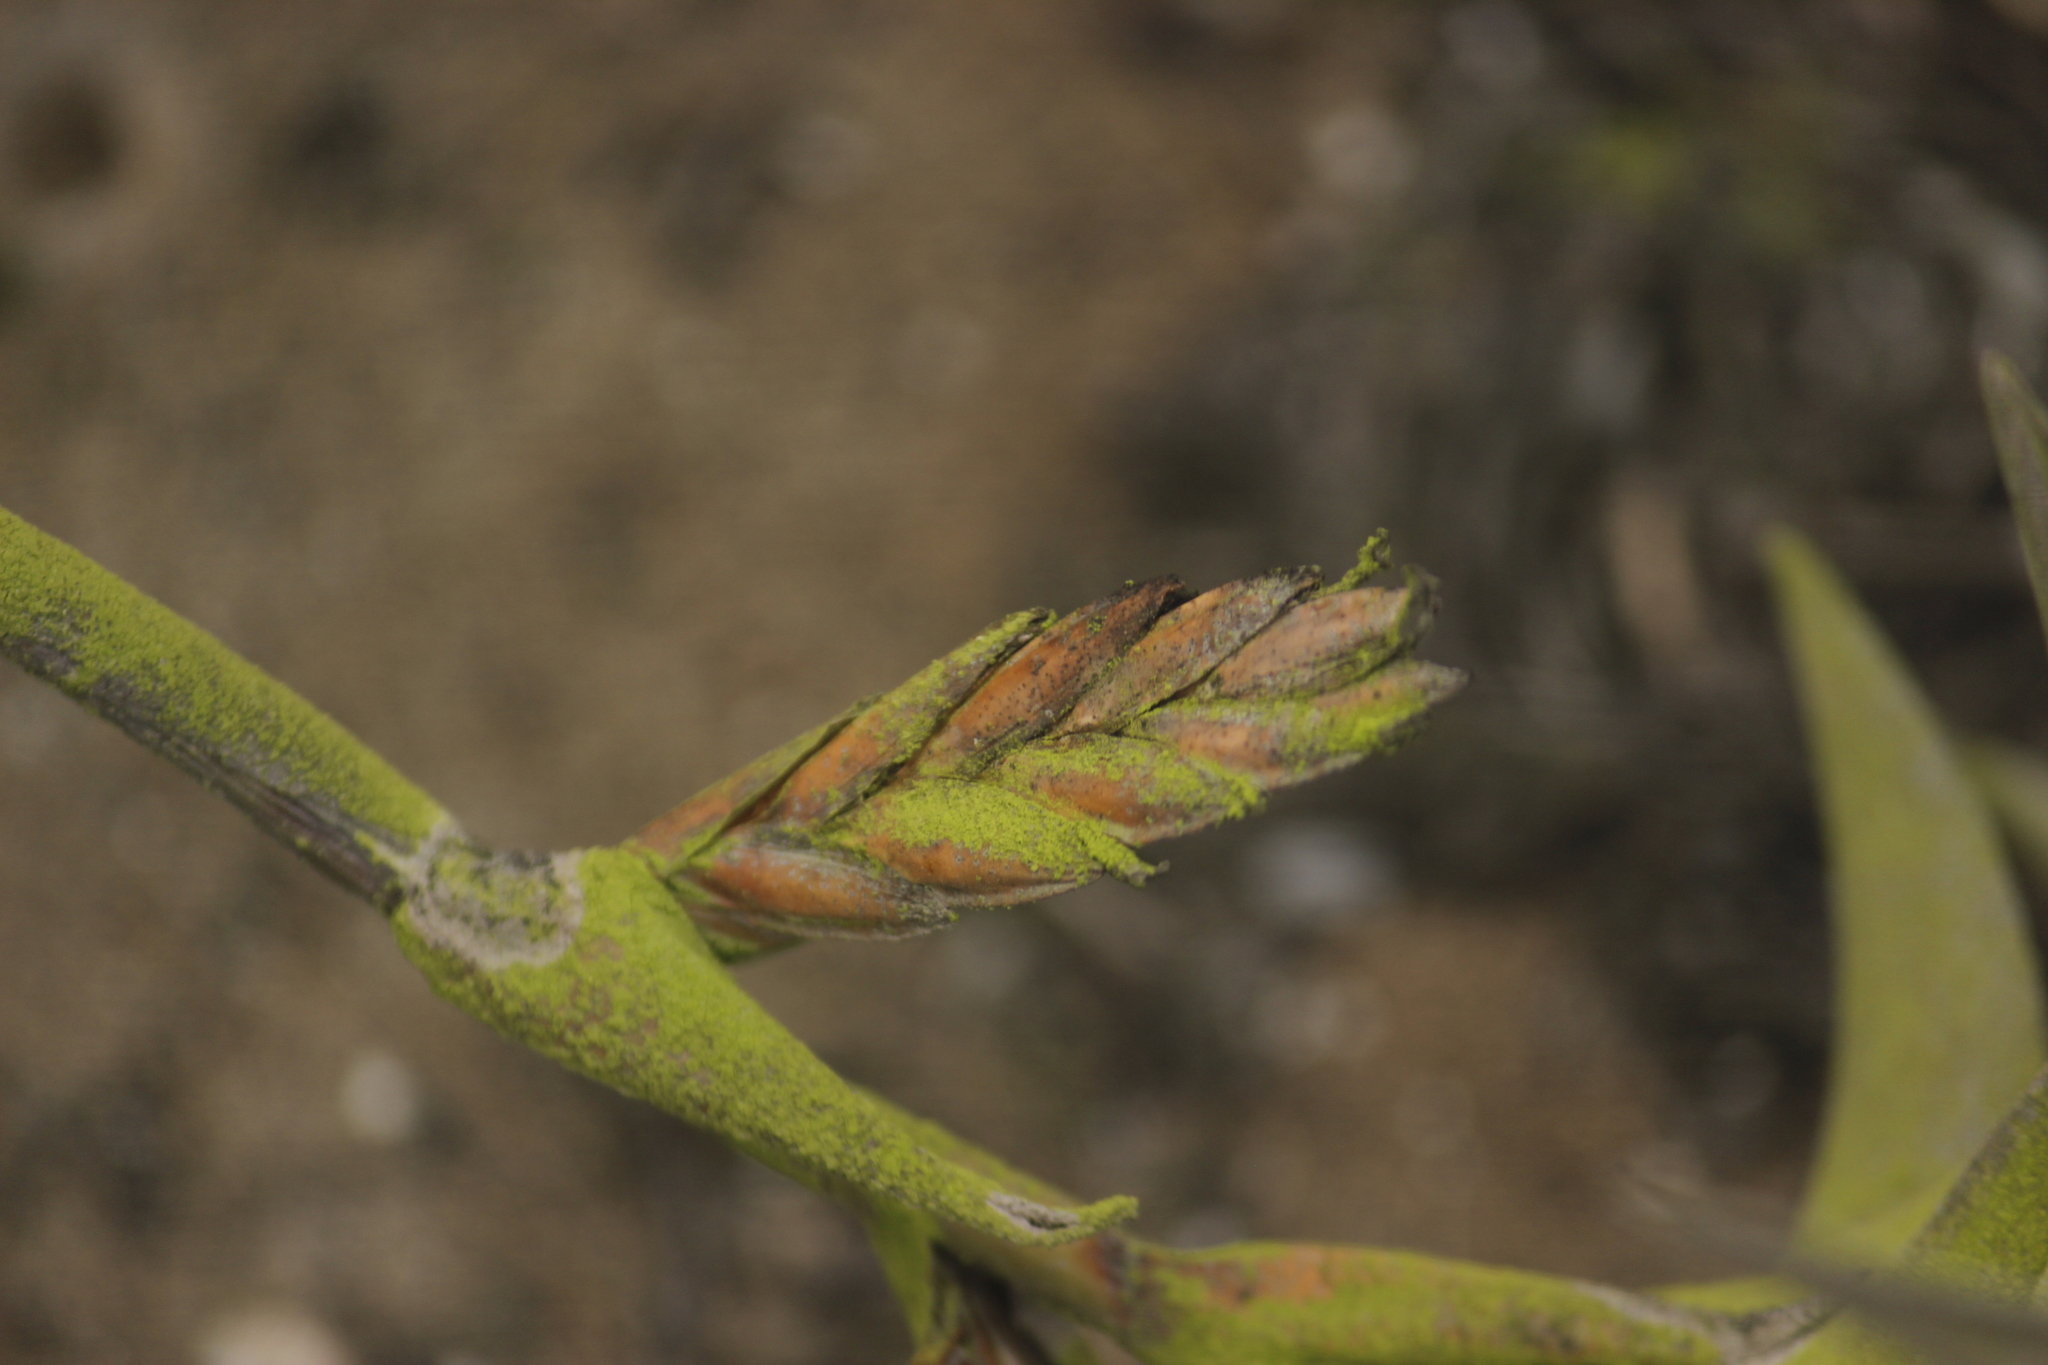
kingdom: Plantae
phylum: Tracheophyta
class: Liliopsida
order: Poales
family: Bromeliaceae
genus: Tillandsia
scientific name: Tillandsia latifolia
